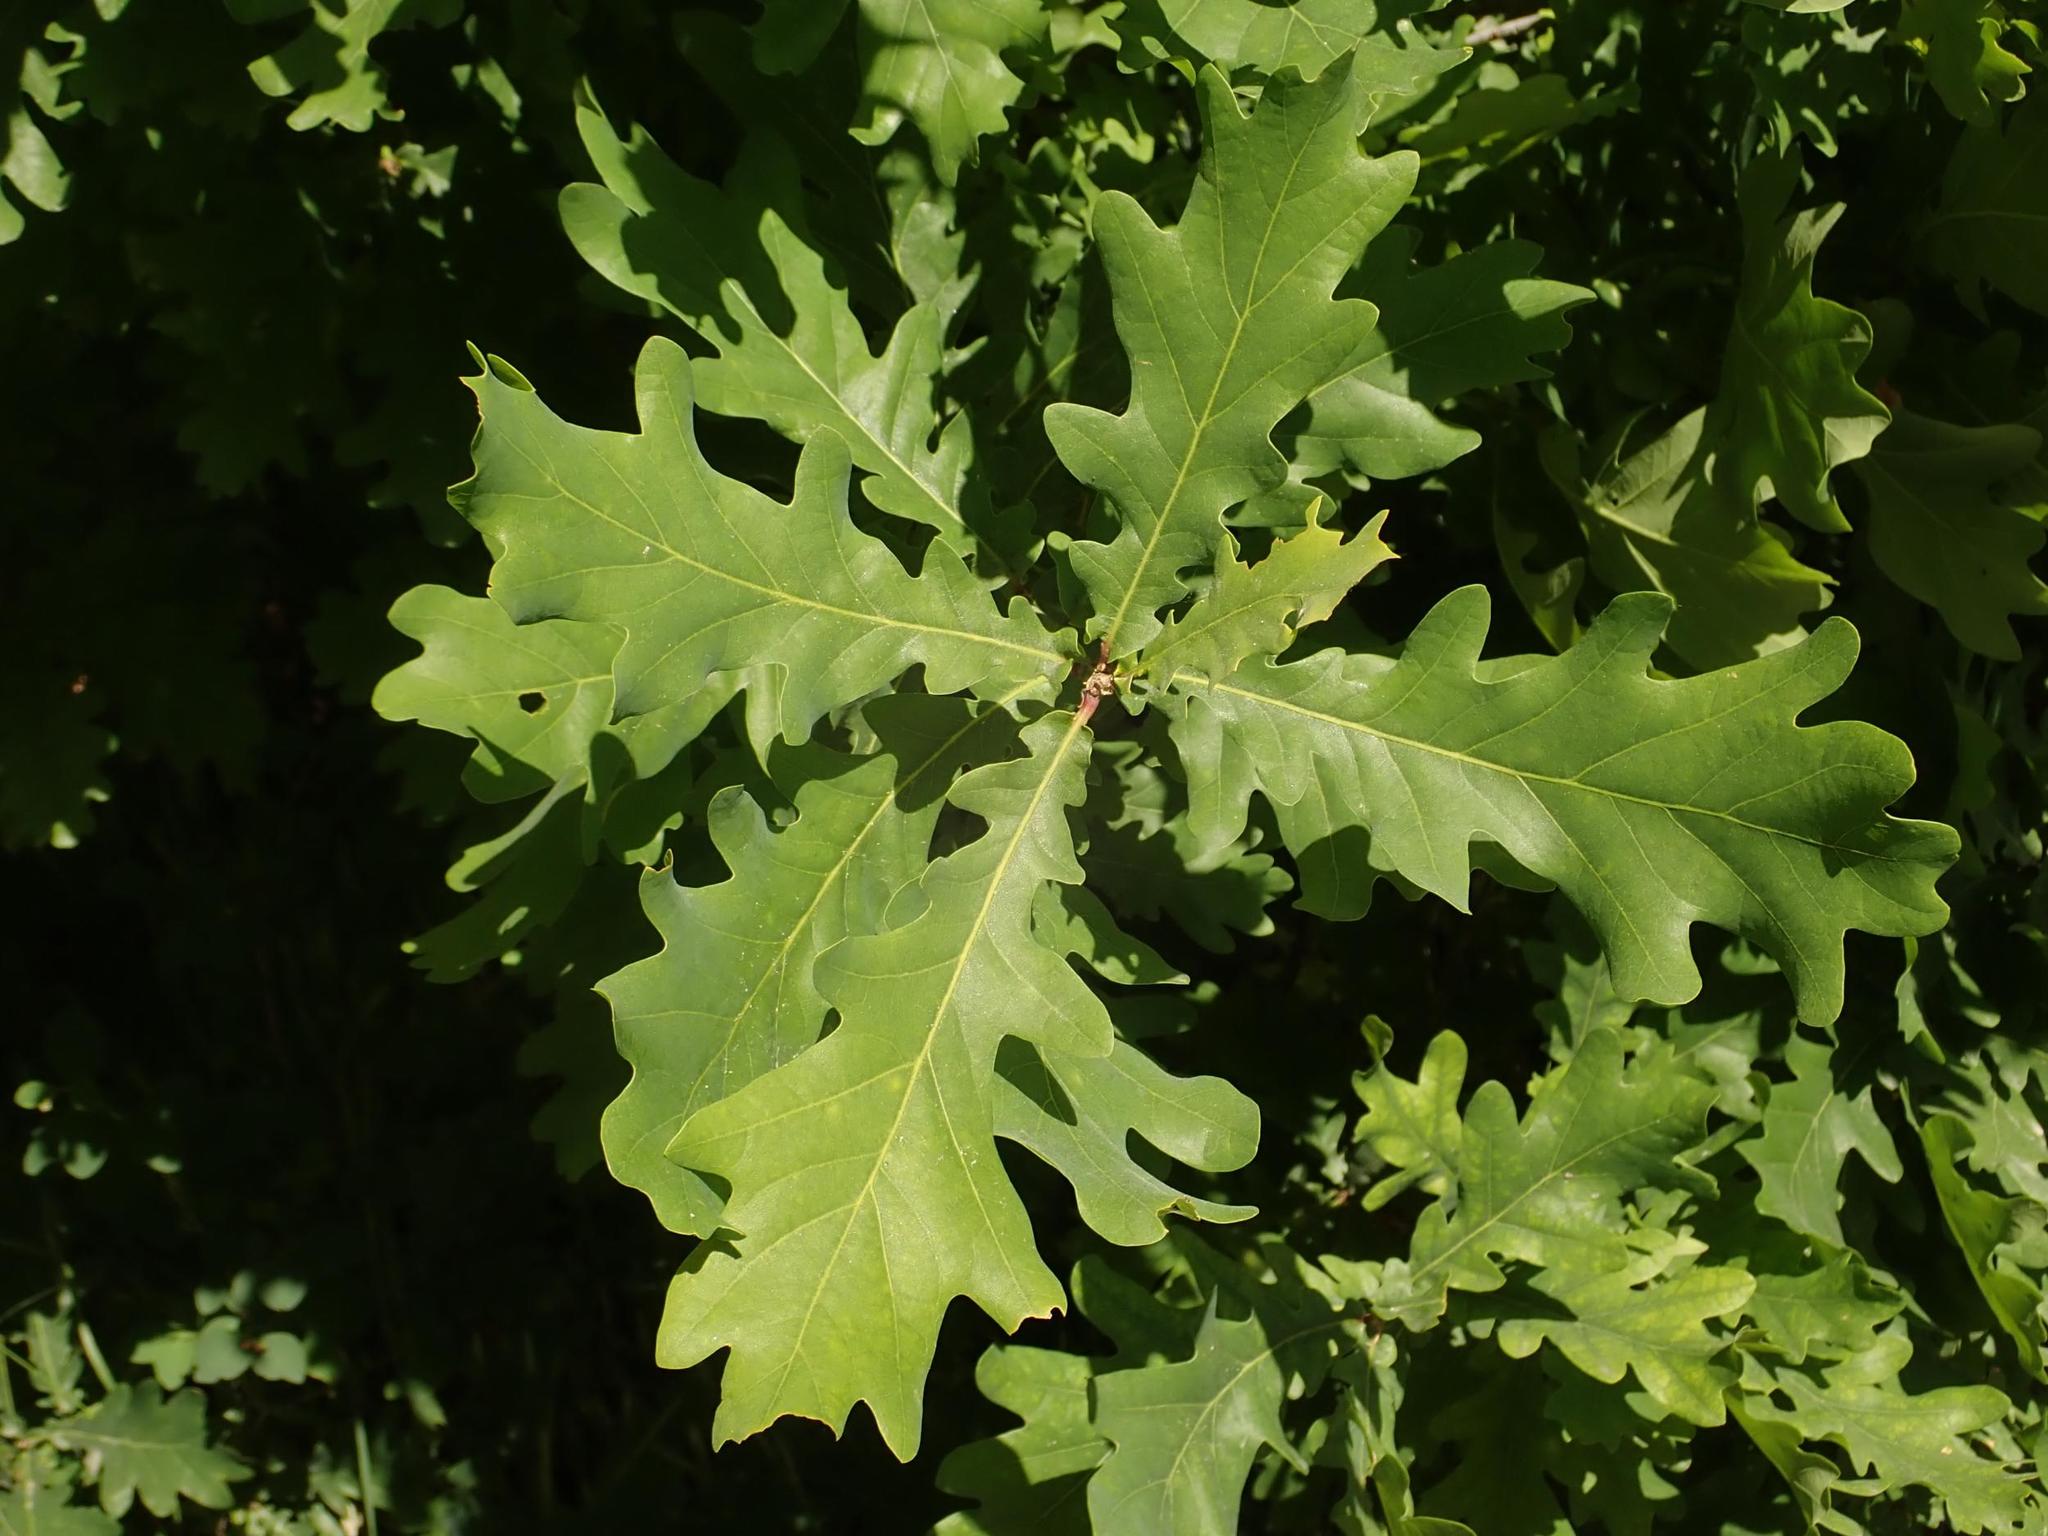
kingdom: Plantae
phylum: Tracheophyta
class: Magnoliopsida
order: Fagales
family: Fagaceae
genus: Quercus
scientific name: Quercus robur
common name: Pedunculate oak
